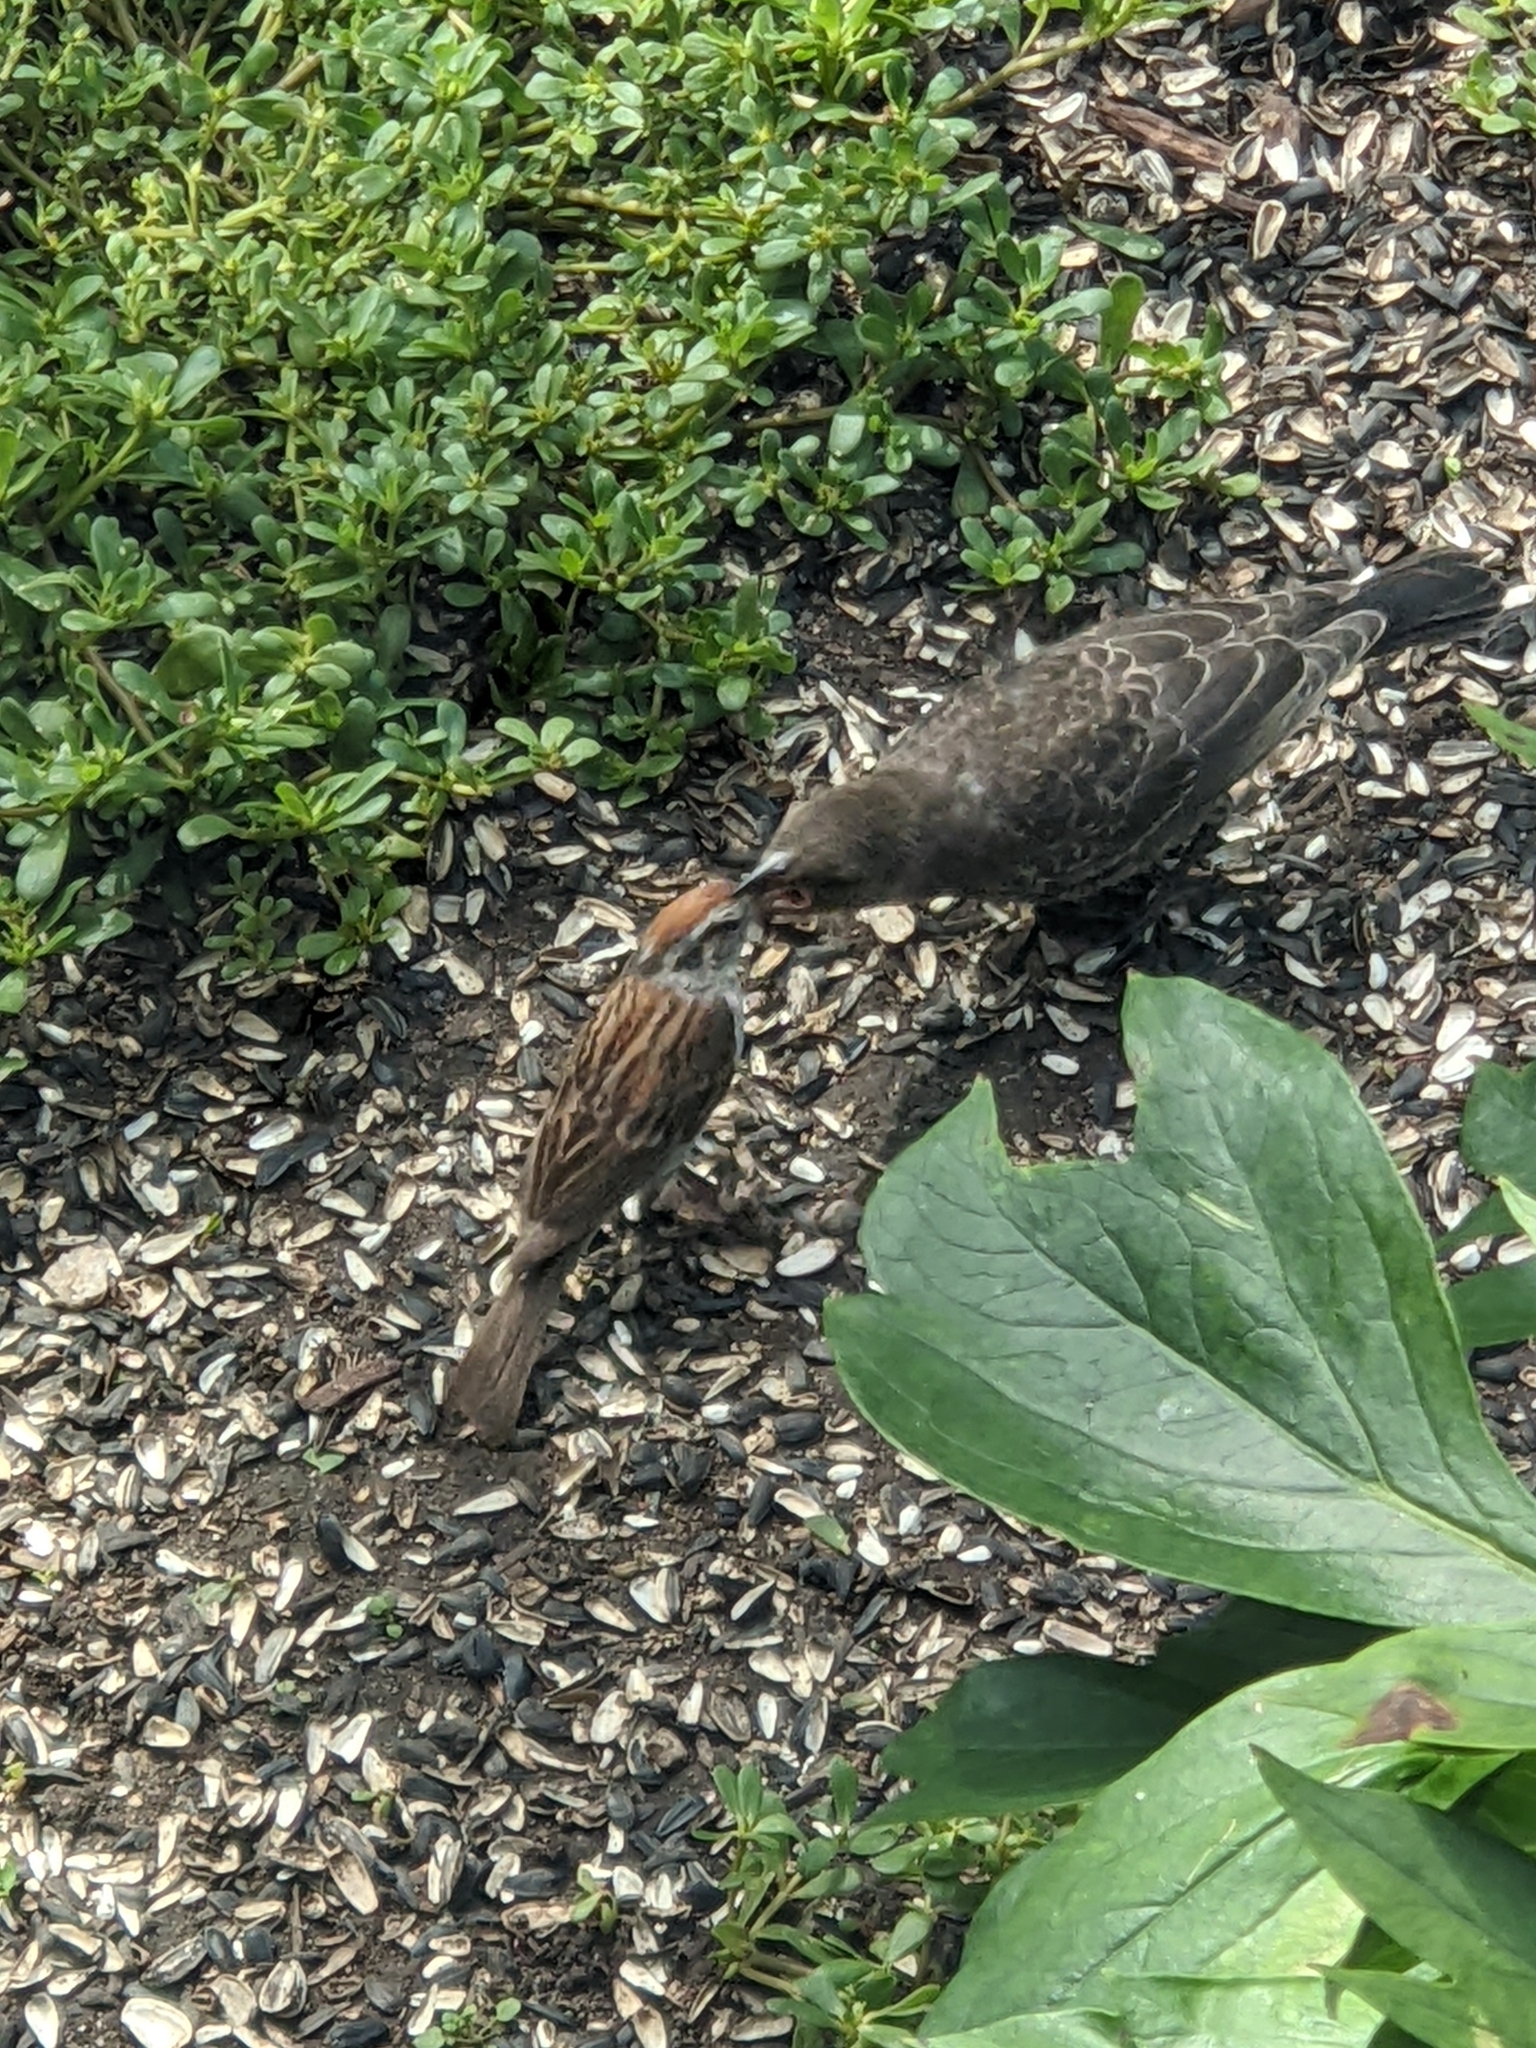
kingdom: Animalia
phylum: Chordata
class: Aves
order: Passeriformes
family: Icteridae
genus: Molothrus
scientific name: Molothrus ater
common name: Brown-headed cowbird
